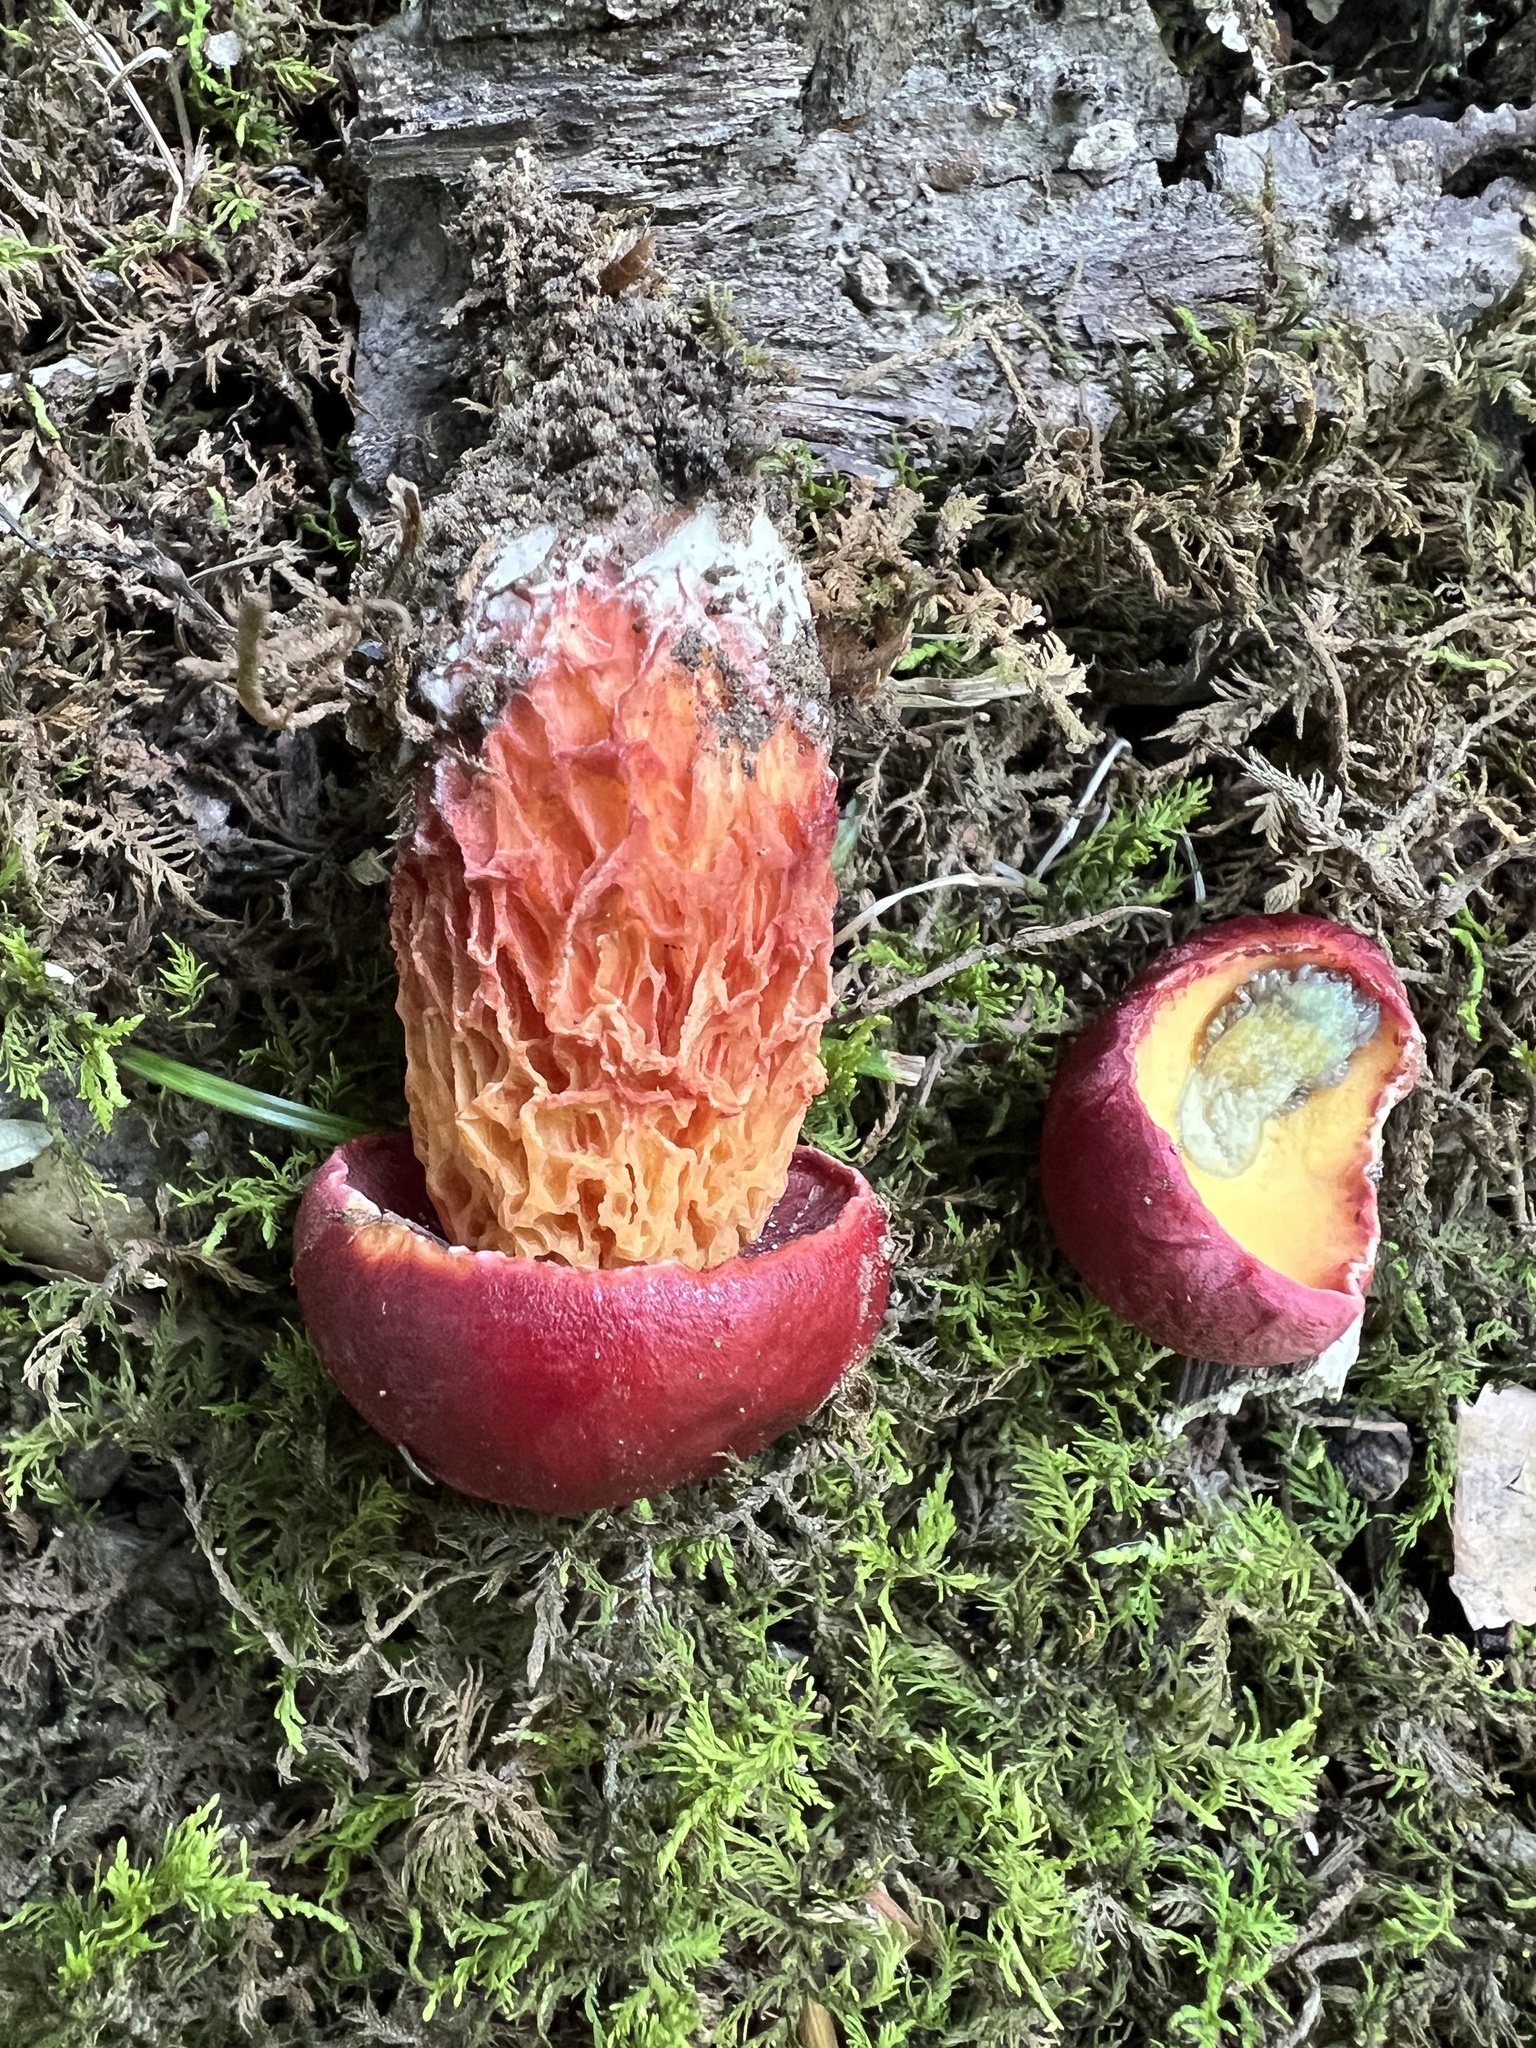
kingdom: Fungi
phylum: Basidiomycota
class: Agaricomycetes
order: Boletales
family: Boletaceae
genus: Butyriboletus
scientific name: Butyriboletus frostii
